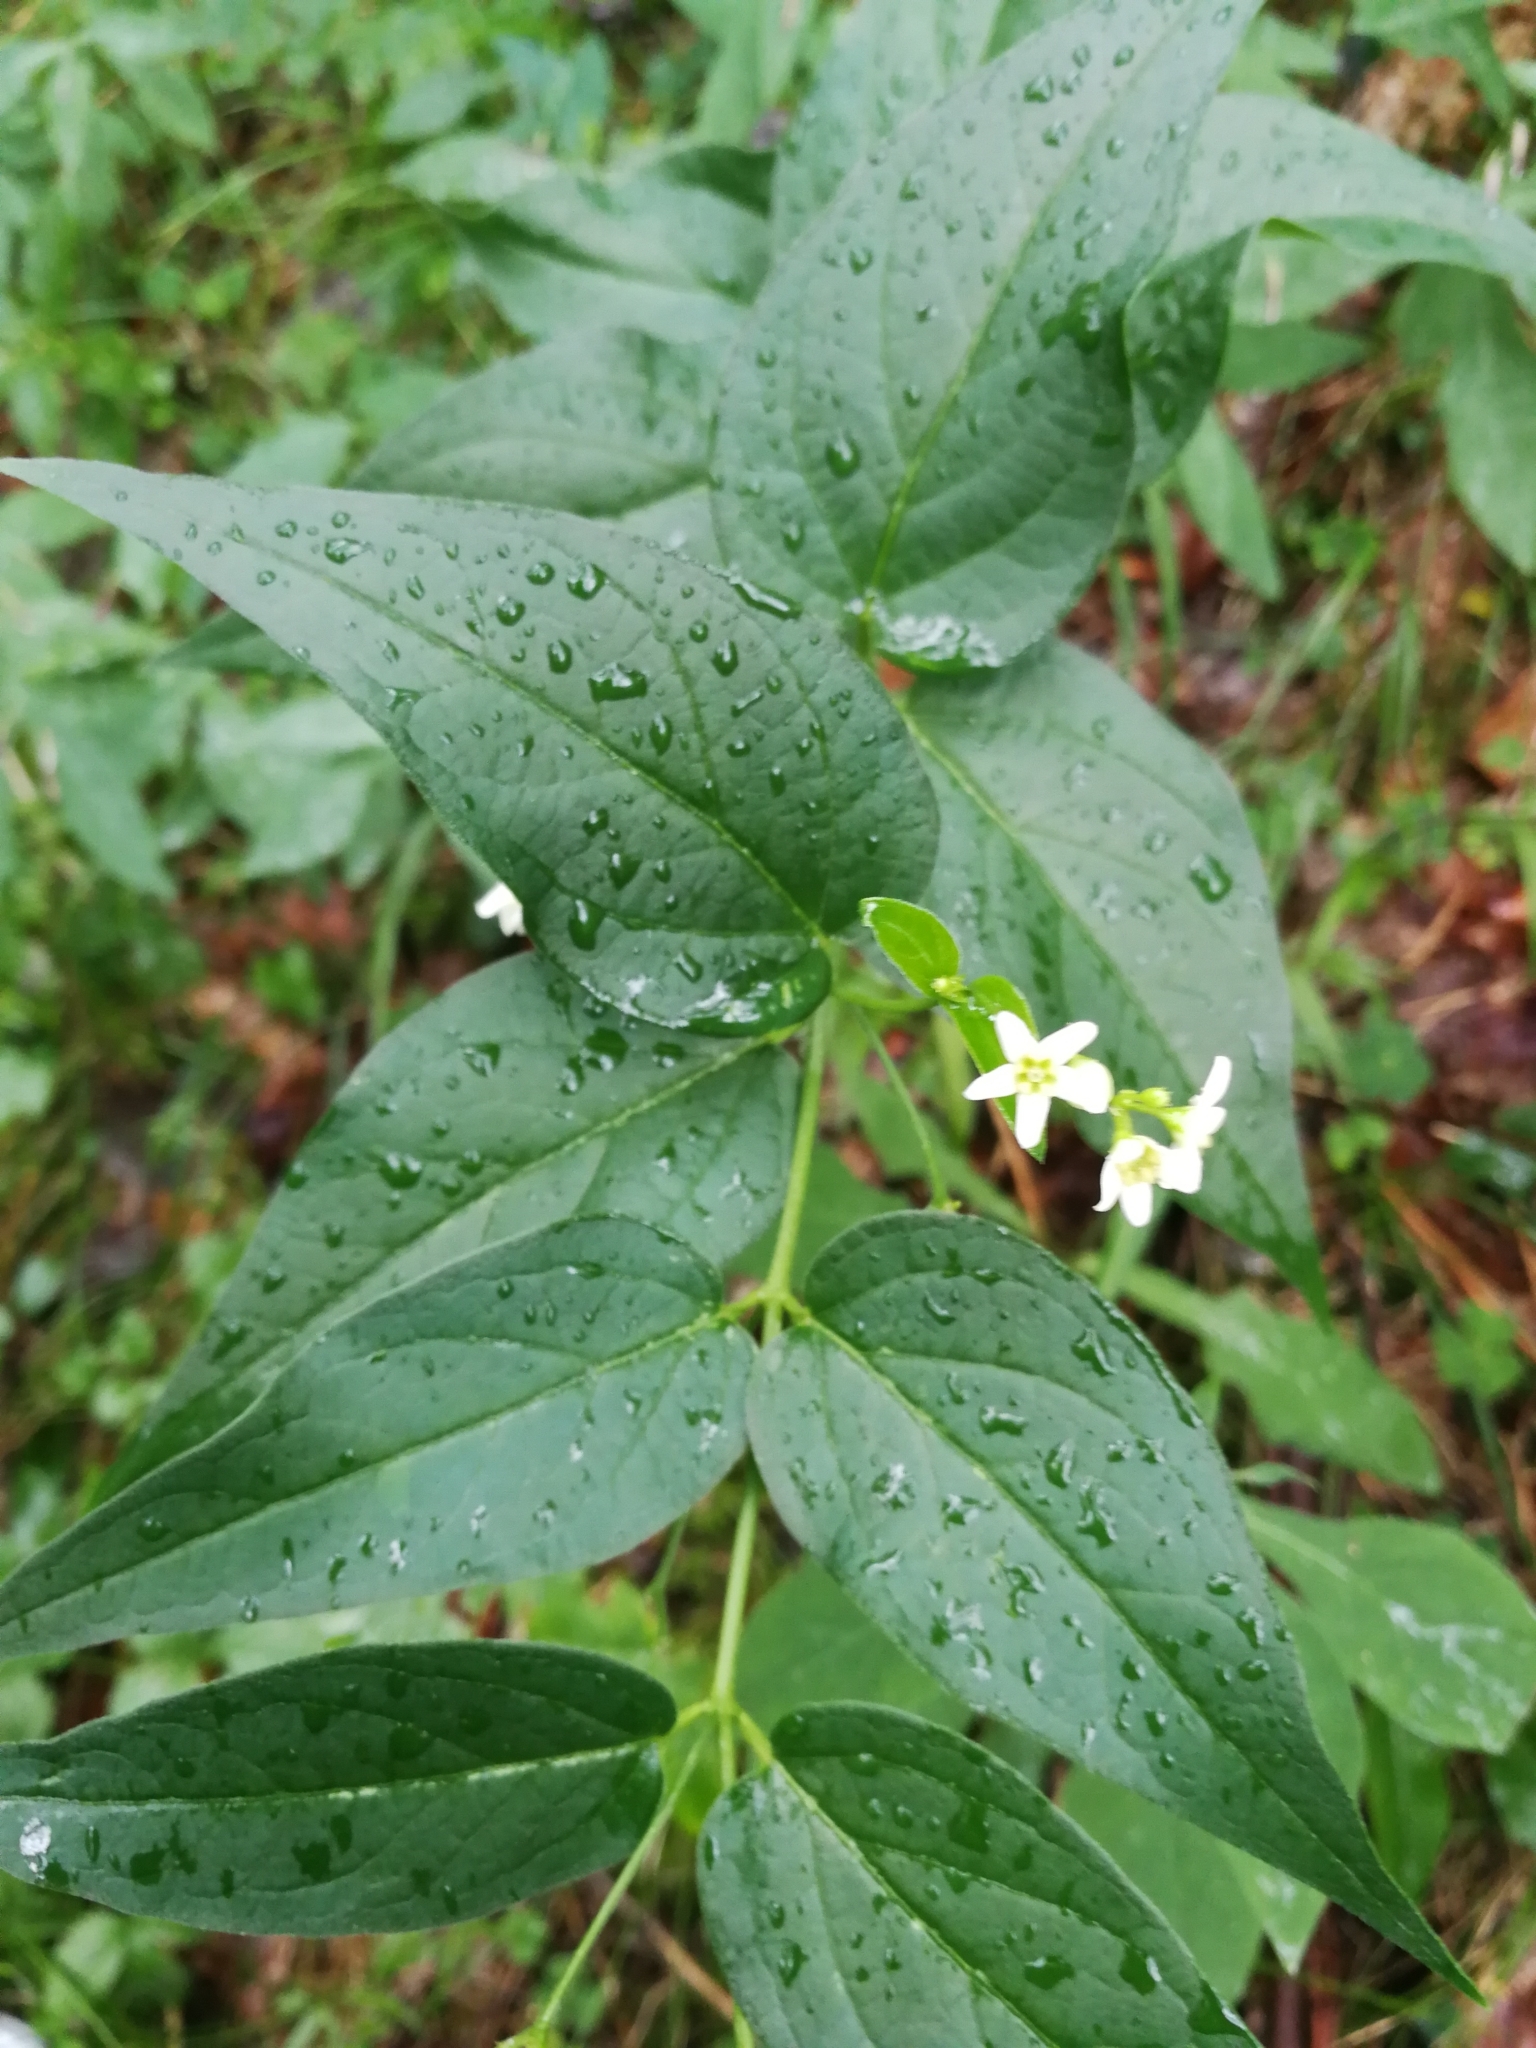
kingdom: Plantae
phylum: Tracheophyta
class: Magnoliopsida
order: Gentianales
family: Apocynaceae
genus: Vincetoxicum
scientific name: Vincetoxicum hirundinaria
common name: White swallowwort
